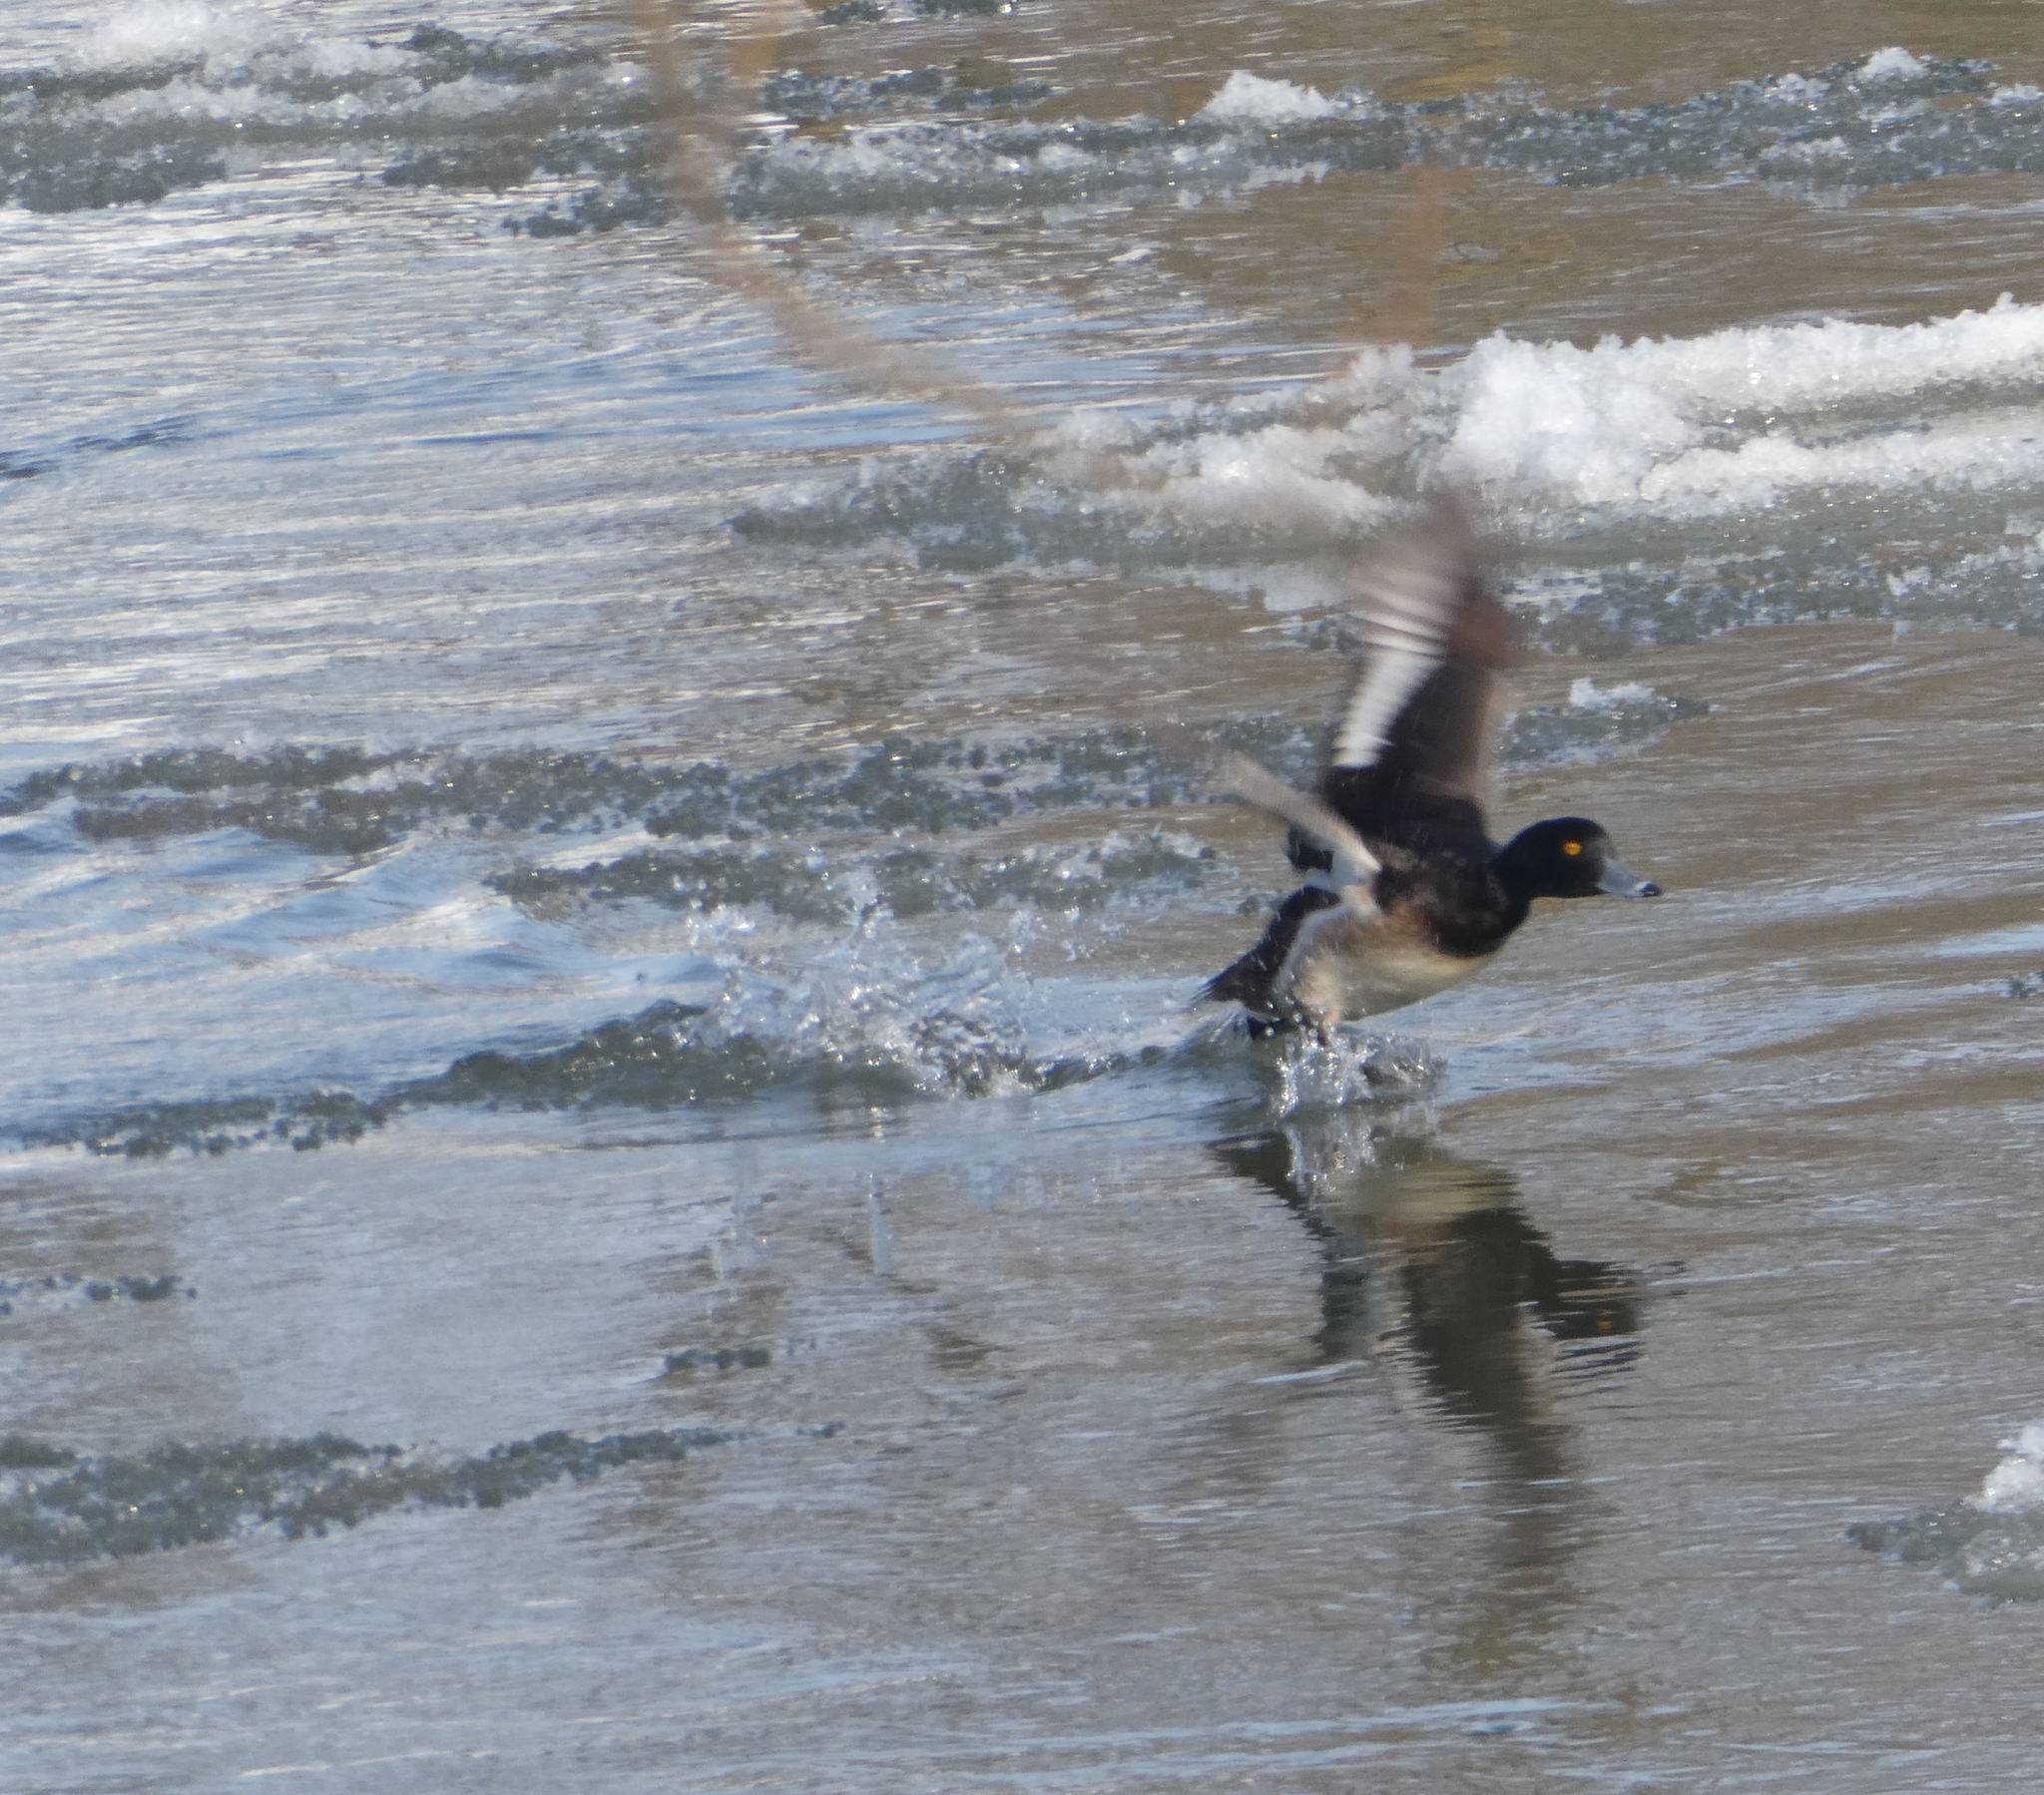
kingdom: Animalia
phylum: Chordata
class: Aves
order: Anseriformes
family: Anatidae
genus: Aythya
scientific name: Aythya fuligula
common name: Tufted duck
